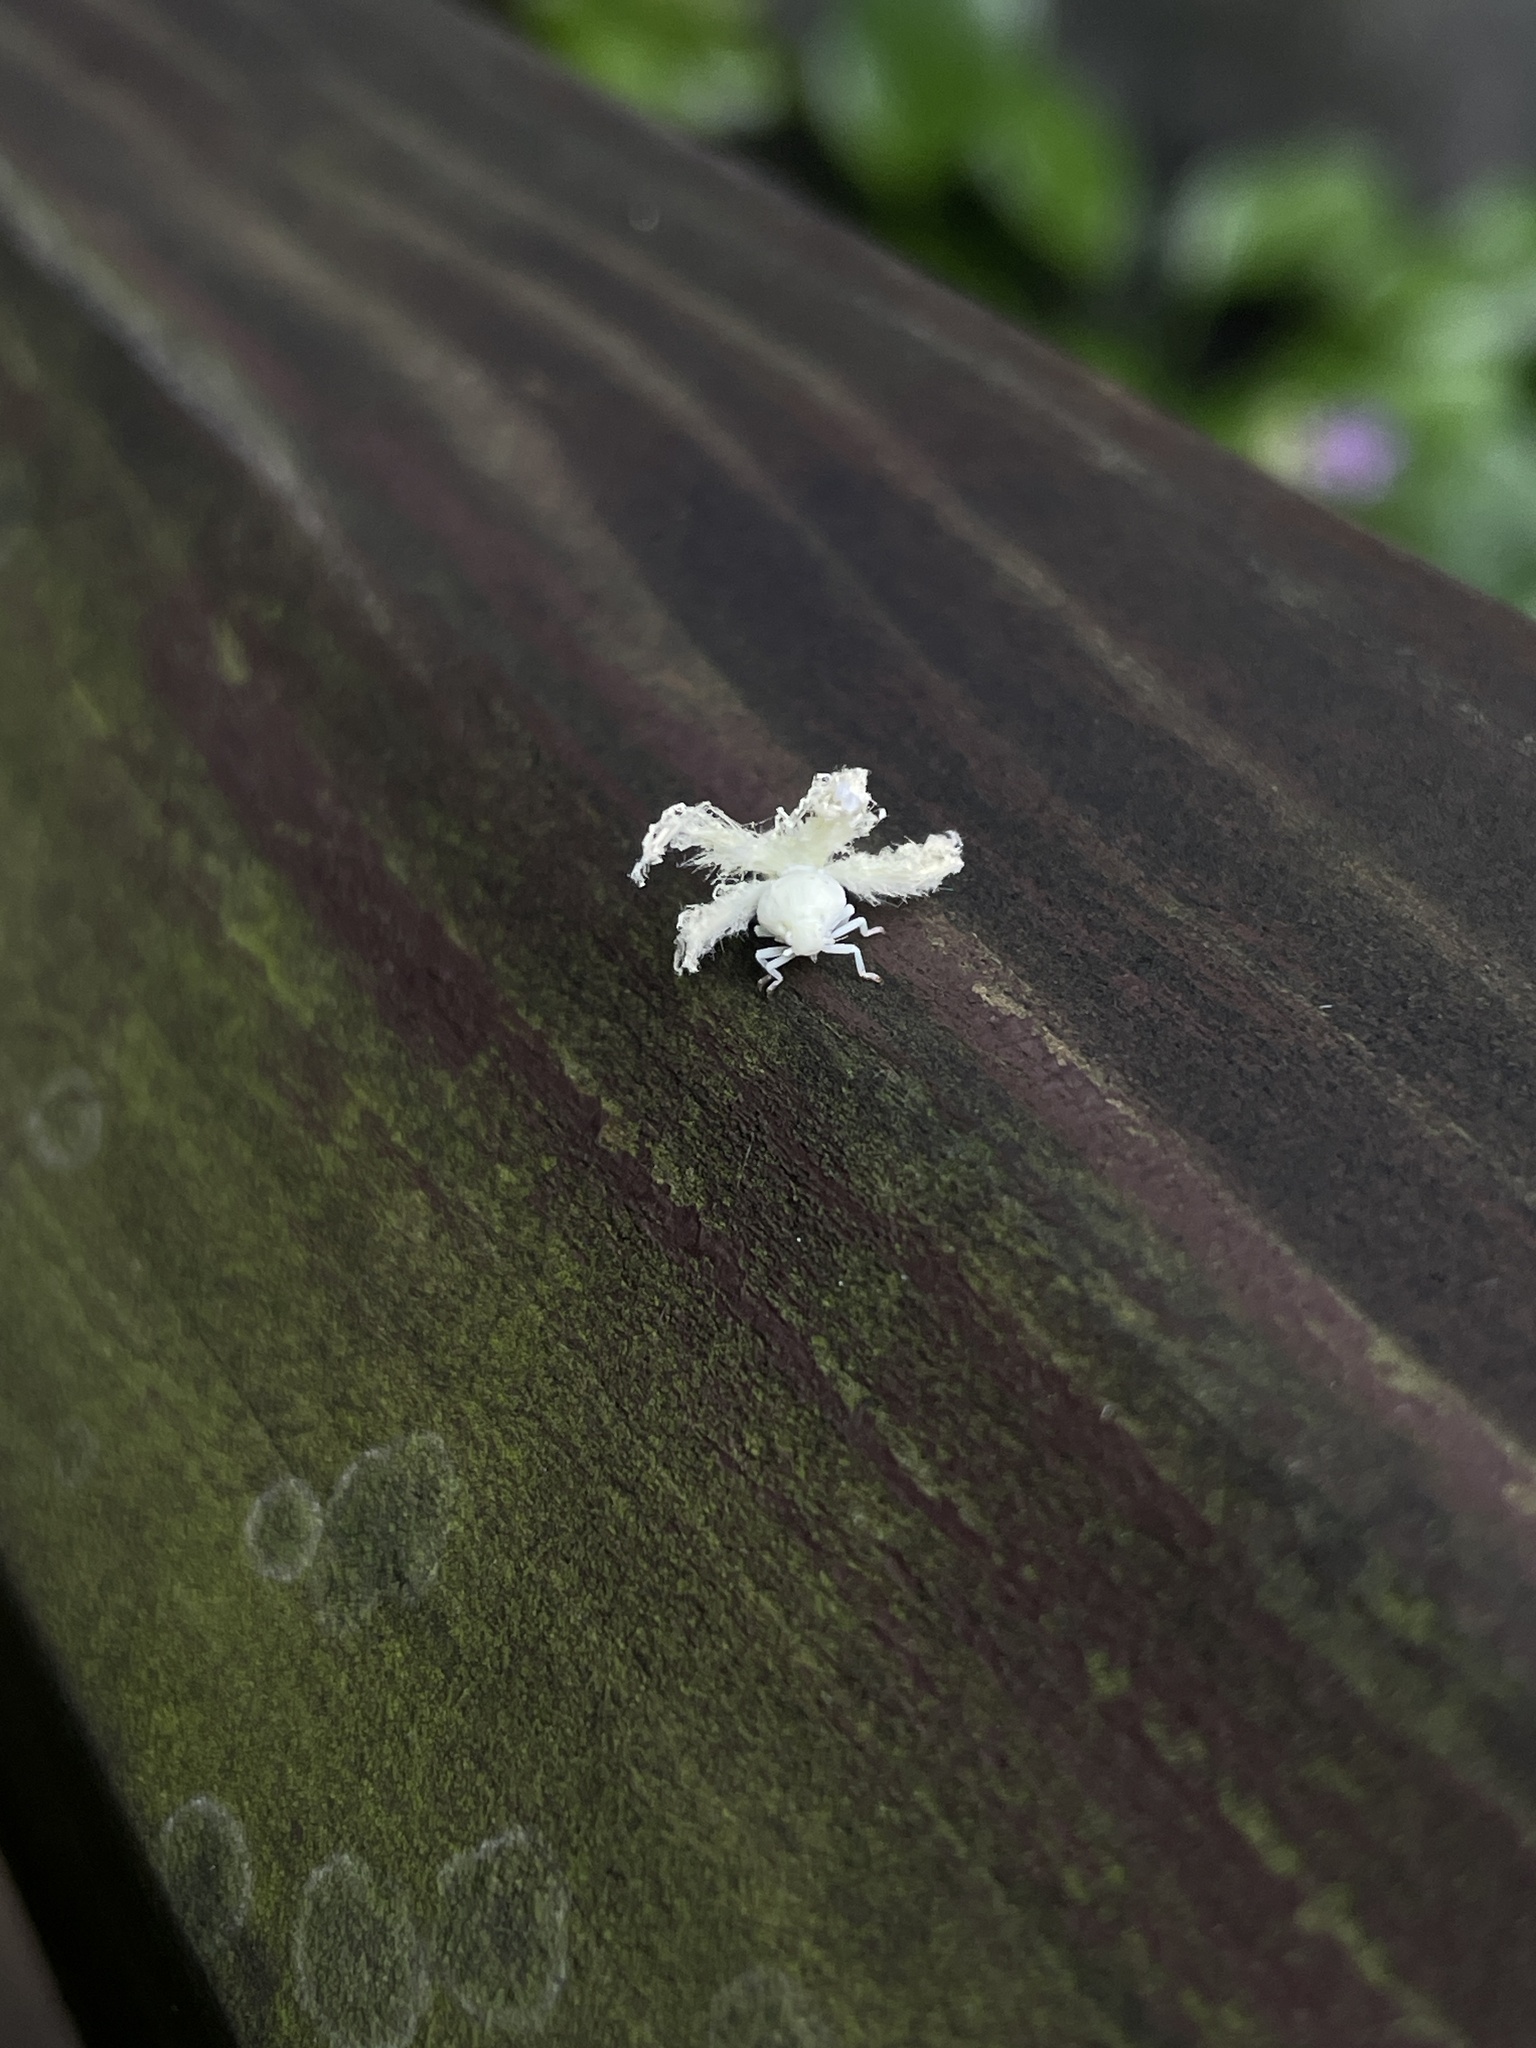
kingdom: Animalia
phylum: Arthropoda
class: Insecta
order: Hemiptera
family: Ricaniidae
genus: Ricanula
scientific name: Ricanula sublimata
